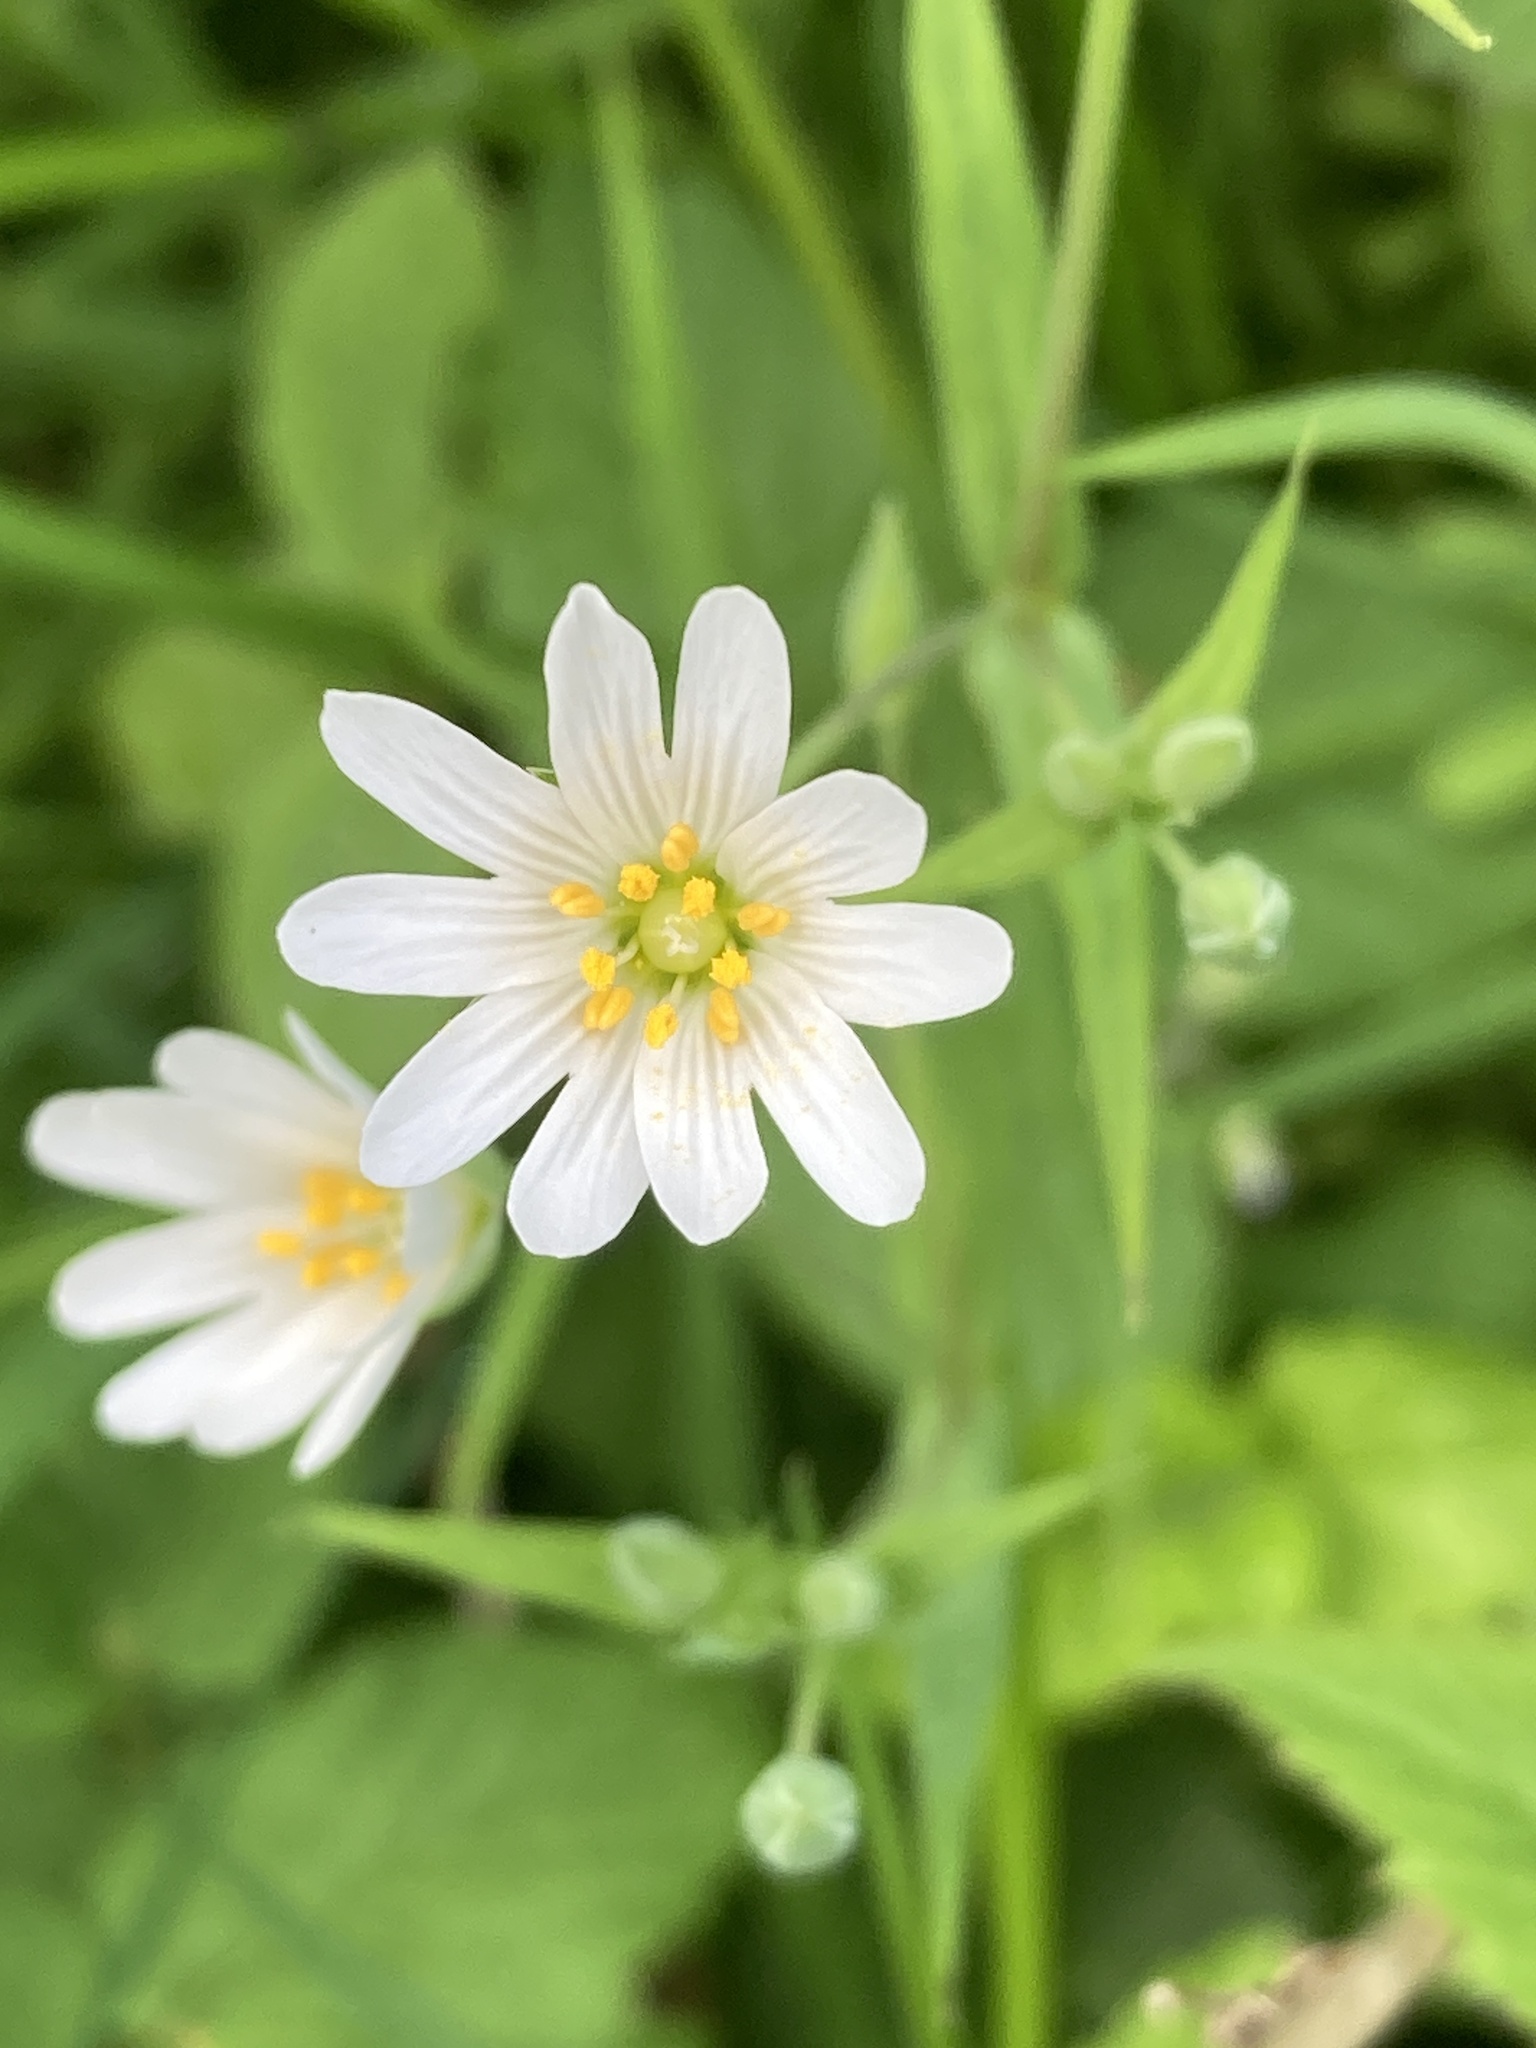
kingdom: Plantae
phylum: Tracheophyta
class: Magnoliopsida
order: Caryophyllales
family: Caryophyllaceae
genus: Rabelera
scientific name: Rabelera holostea
